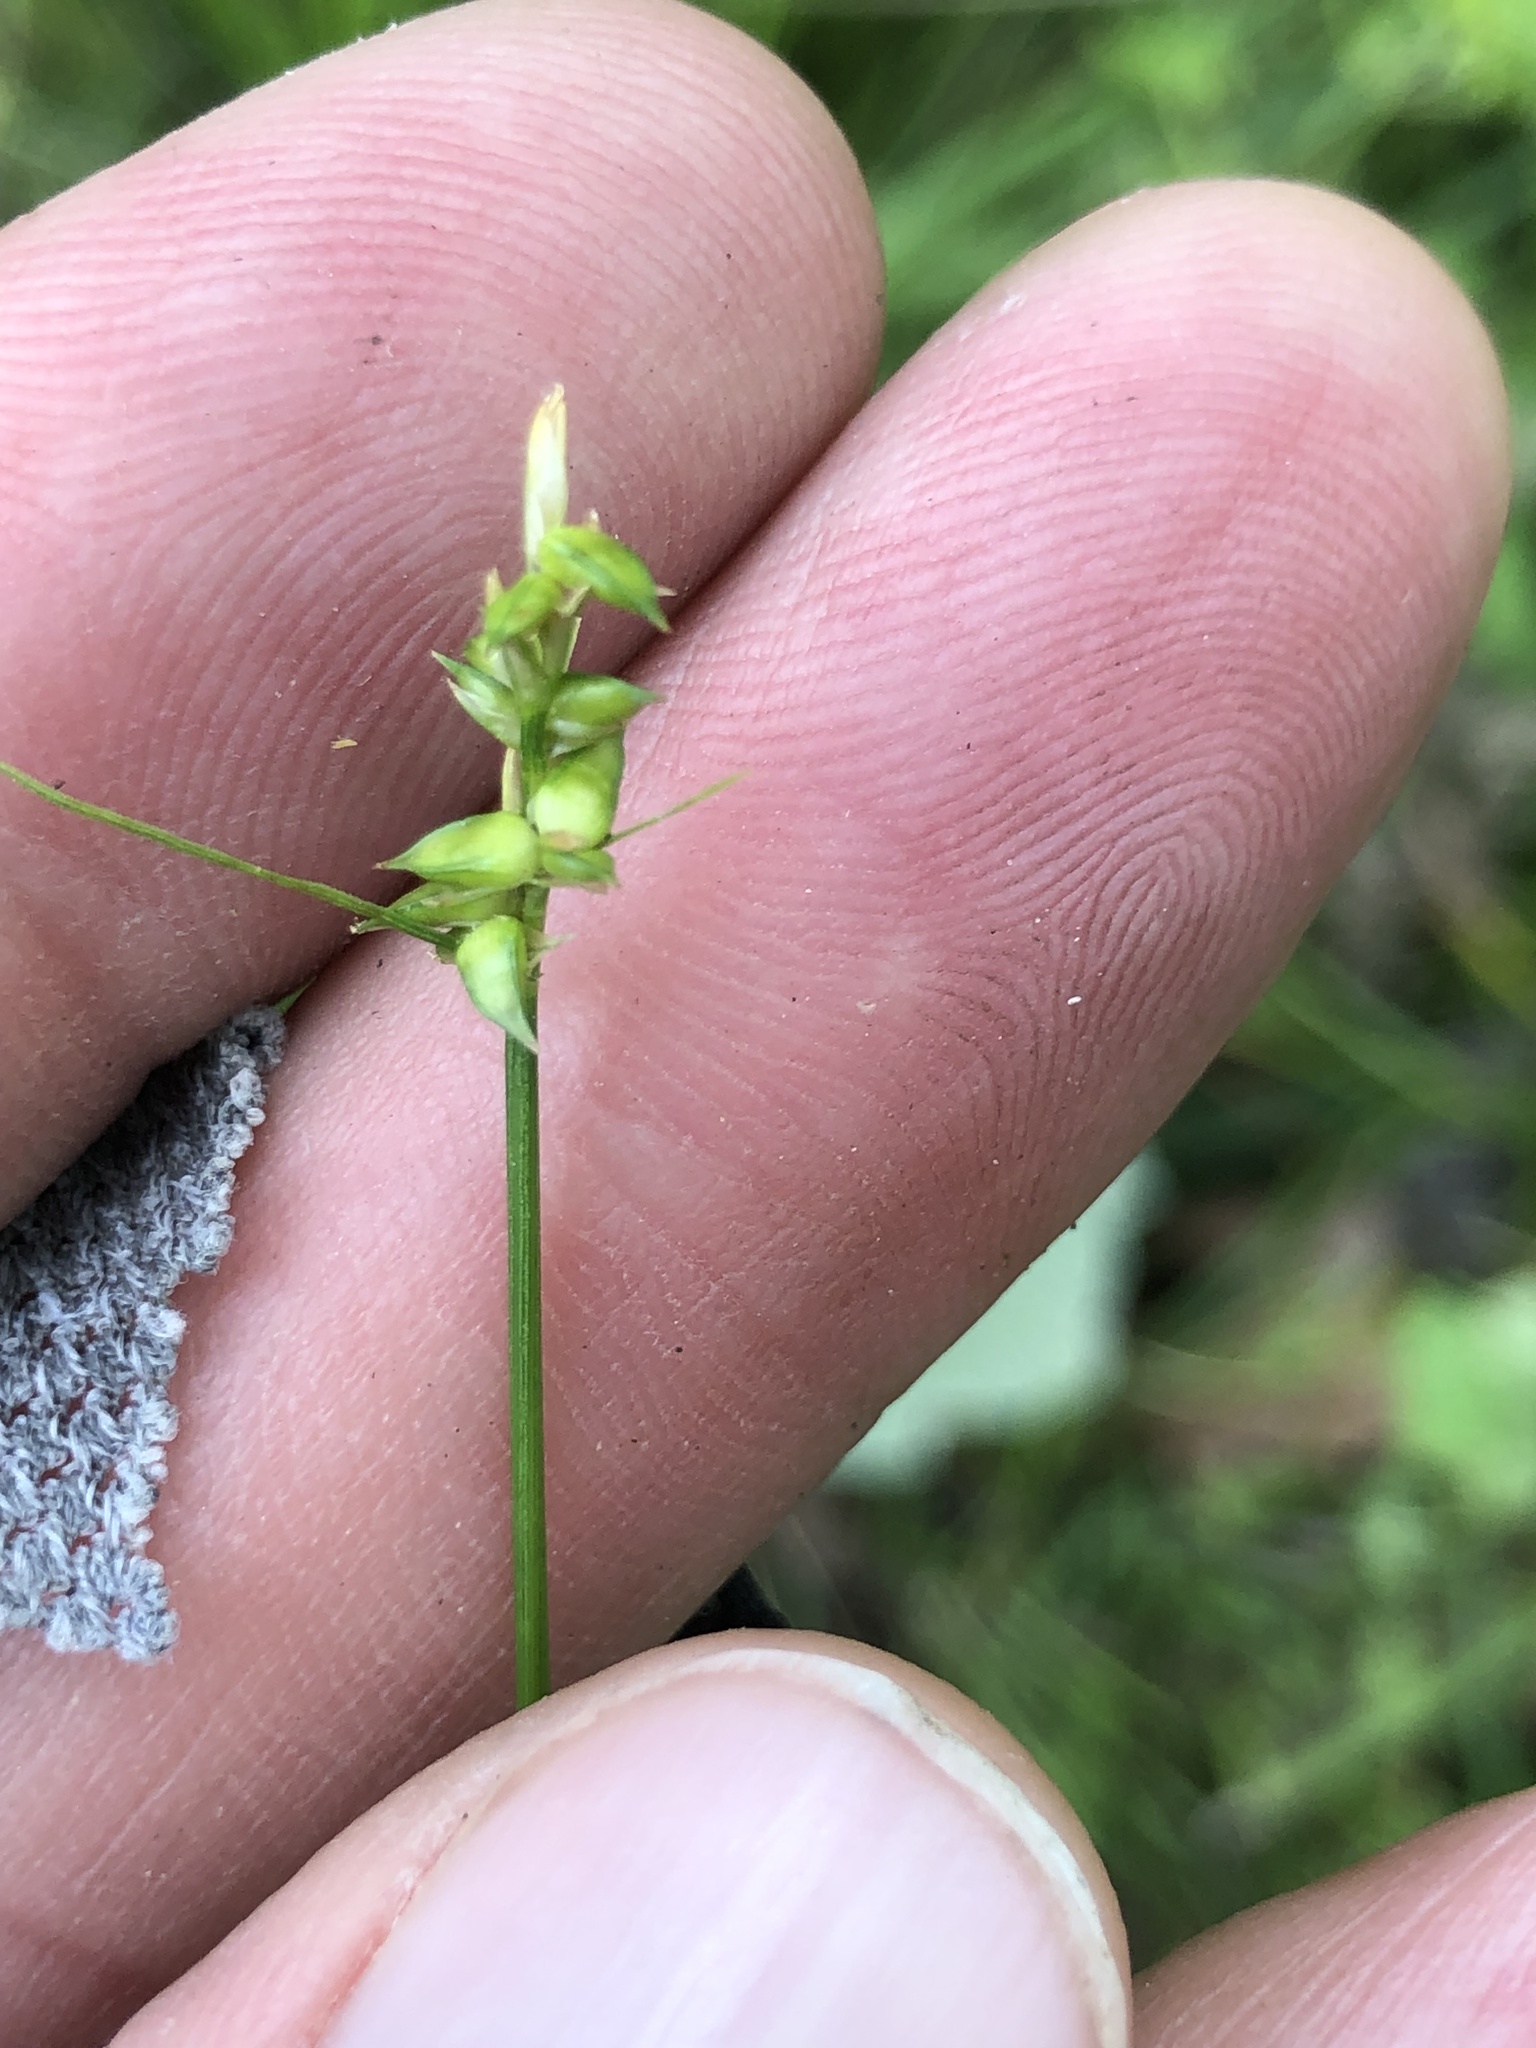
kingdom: Plantae
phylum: Tracheophyta
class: Liliopsida
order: Poales
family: Cyperaceae
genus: Carex
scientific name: Carex retroflexa
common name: Reflexed sedge
